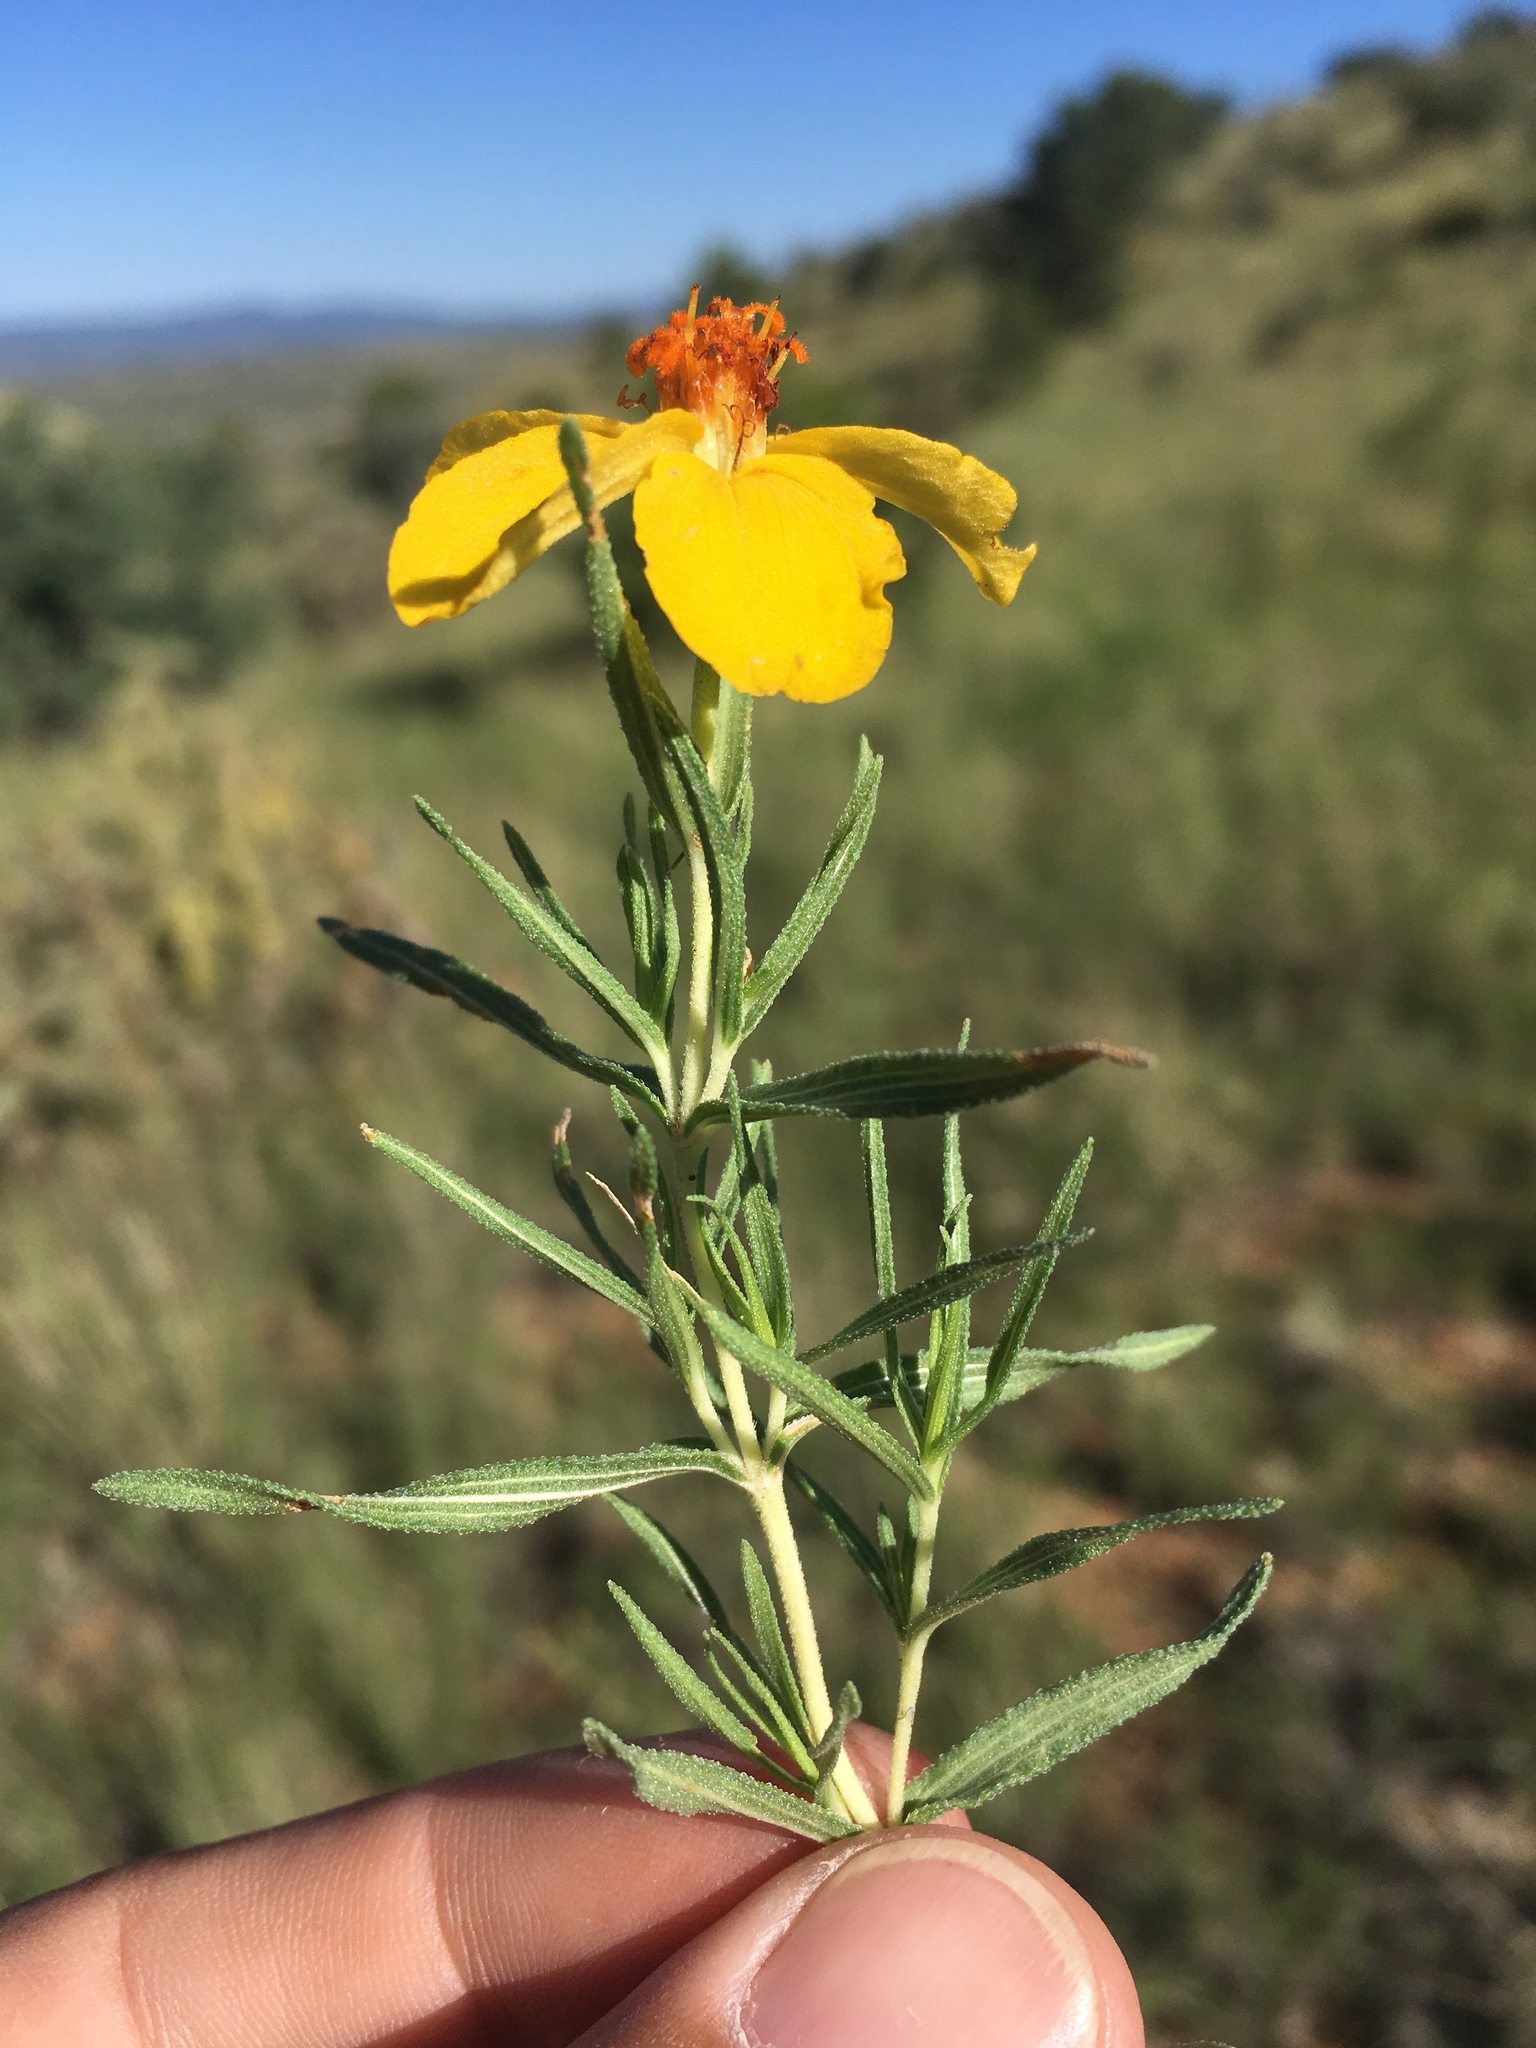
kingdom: Plantae
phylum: Tracheophyta
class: Magnoliopsida
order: Asterales
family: Asteraceae
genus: Zinnia
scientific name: Zinnia grandiflora
